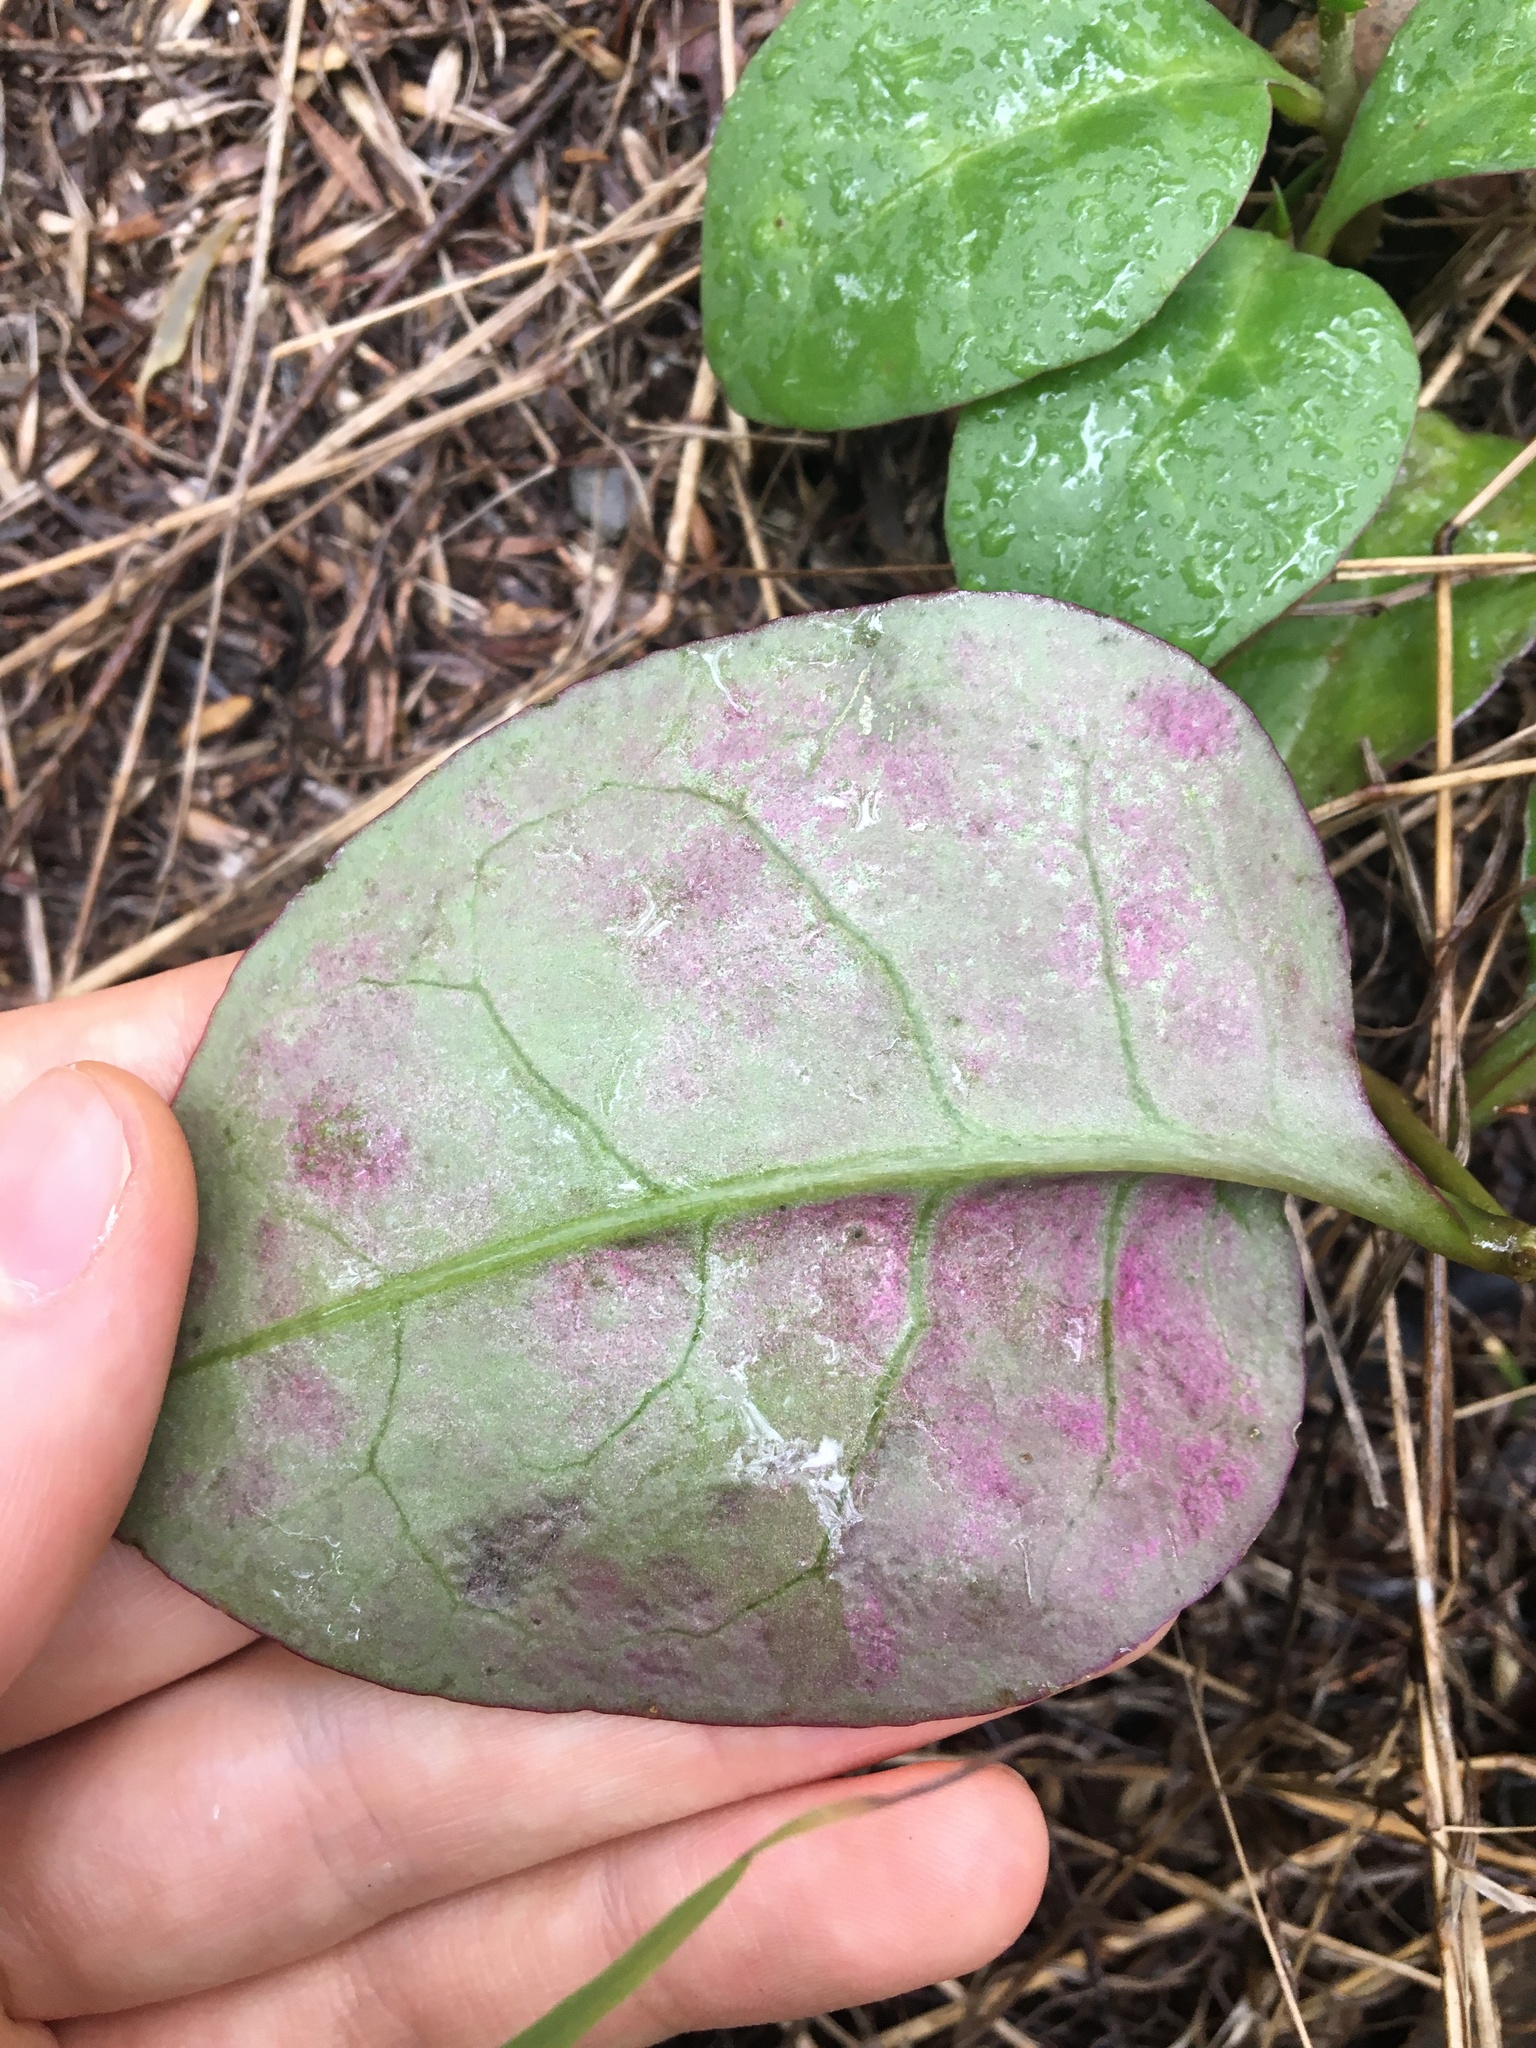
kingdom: Plantae
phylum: Tracheophyta
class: Magnoliopsida
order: Caryophyllales
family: Basellaceae
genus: Anredera
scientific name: Anredera cordifolia
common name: Heartleaf madeiravine
